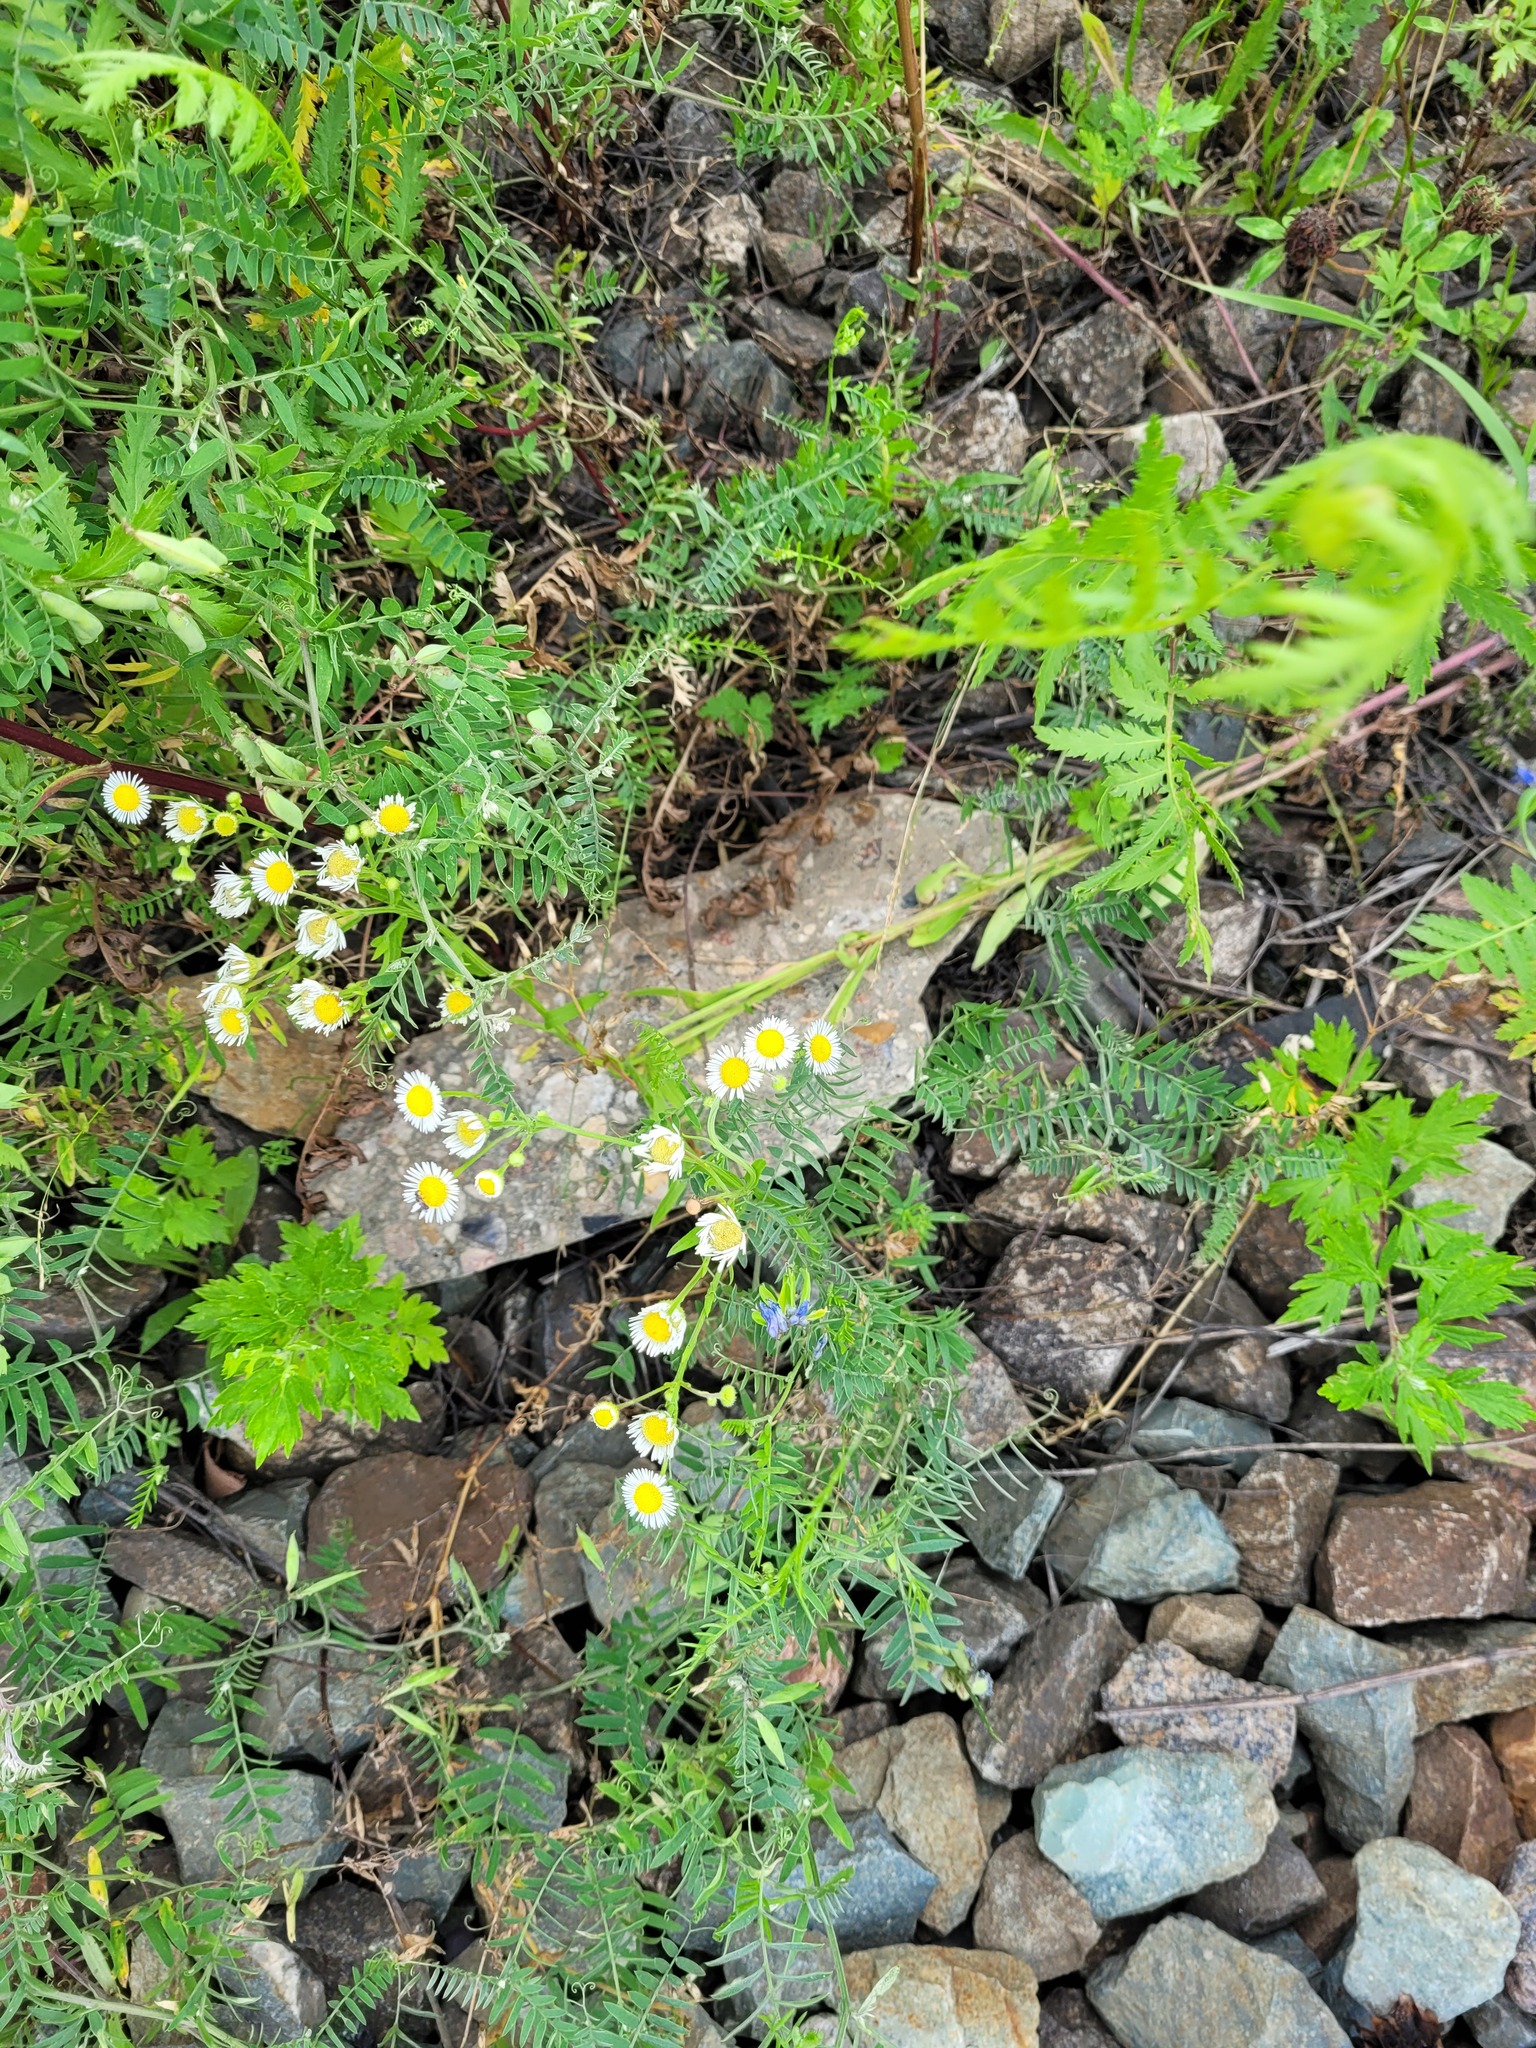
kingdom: Plantae
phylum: Tracheophyta
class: Magnoliopsida
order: Asterales
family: Asteraceae
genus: Erigeron
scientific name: Erigeron annuus
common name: Tall fleabane
